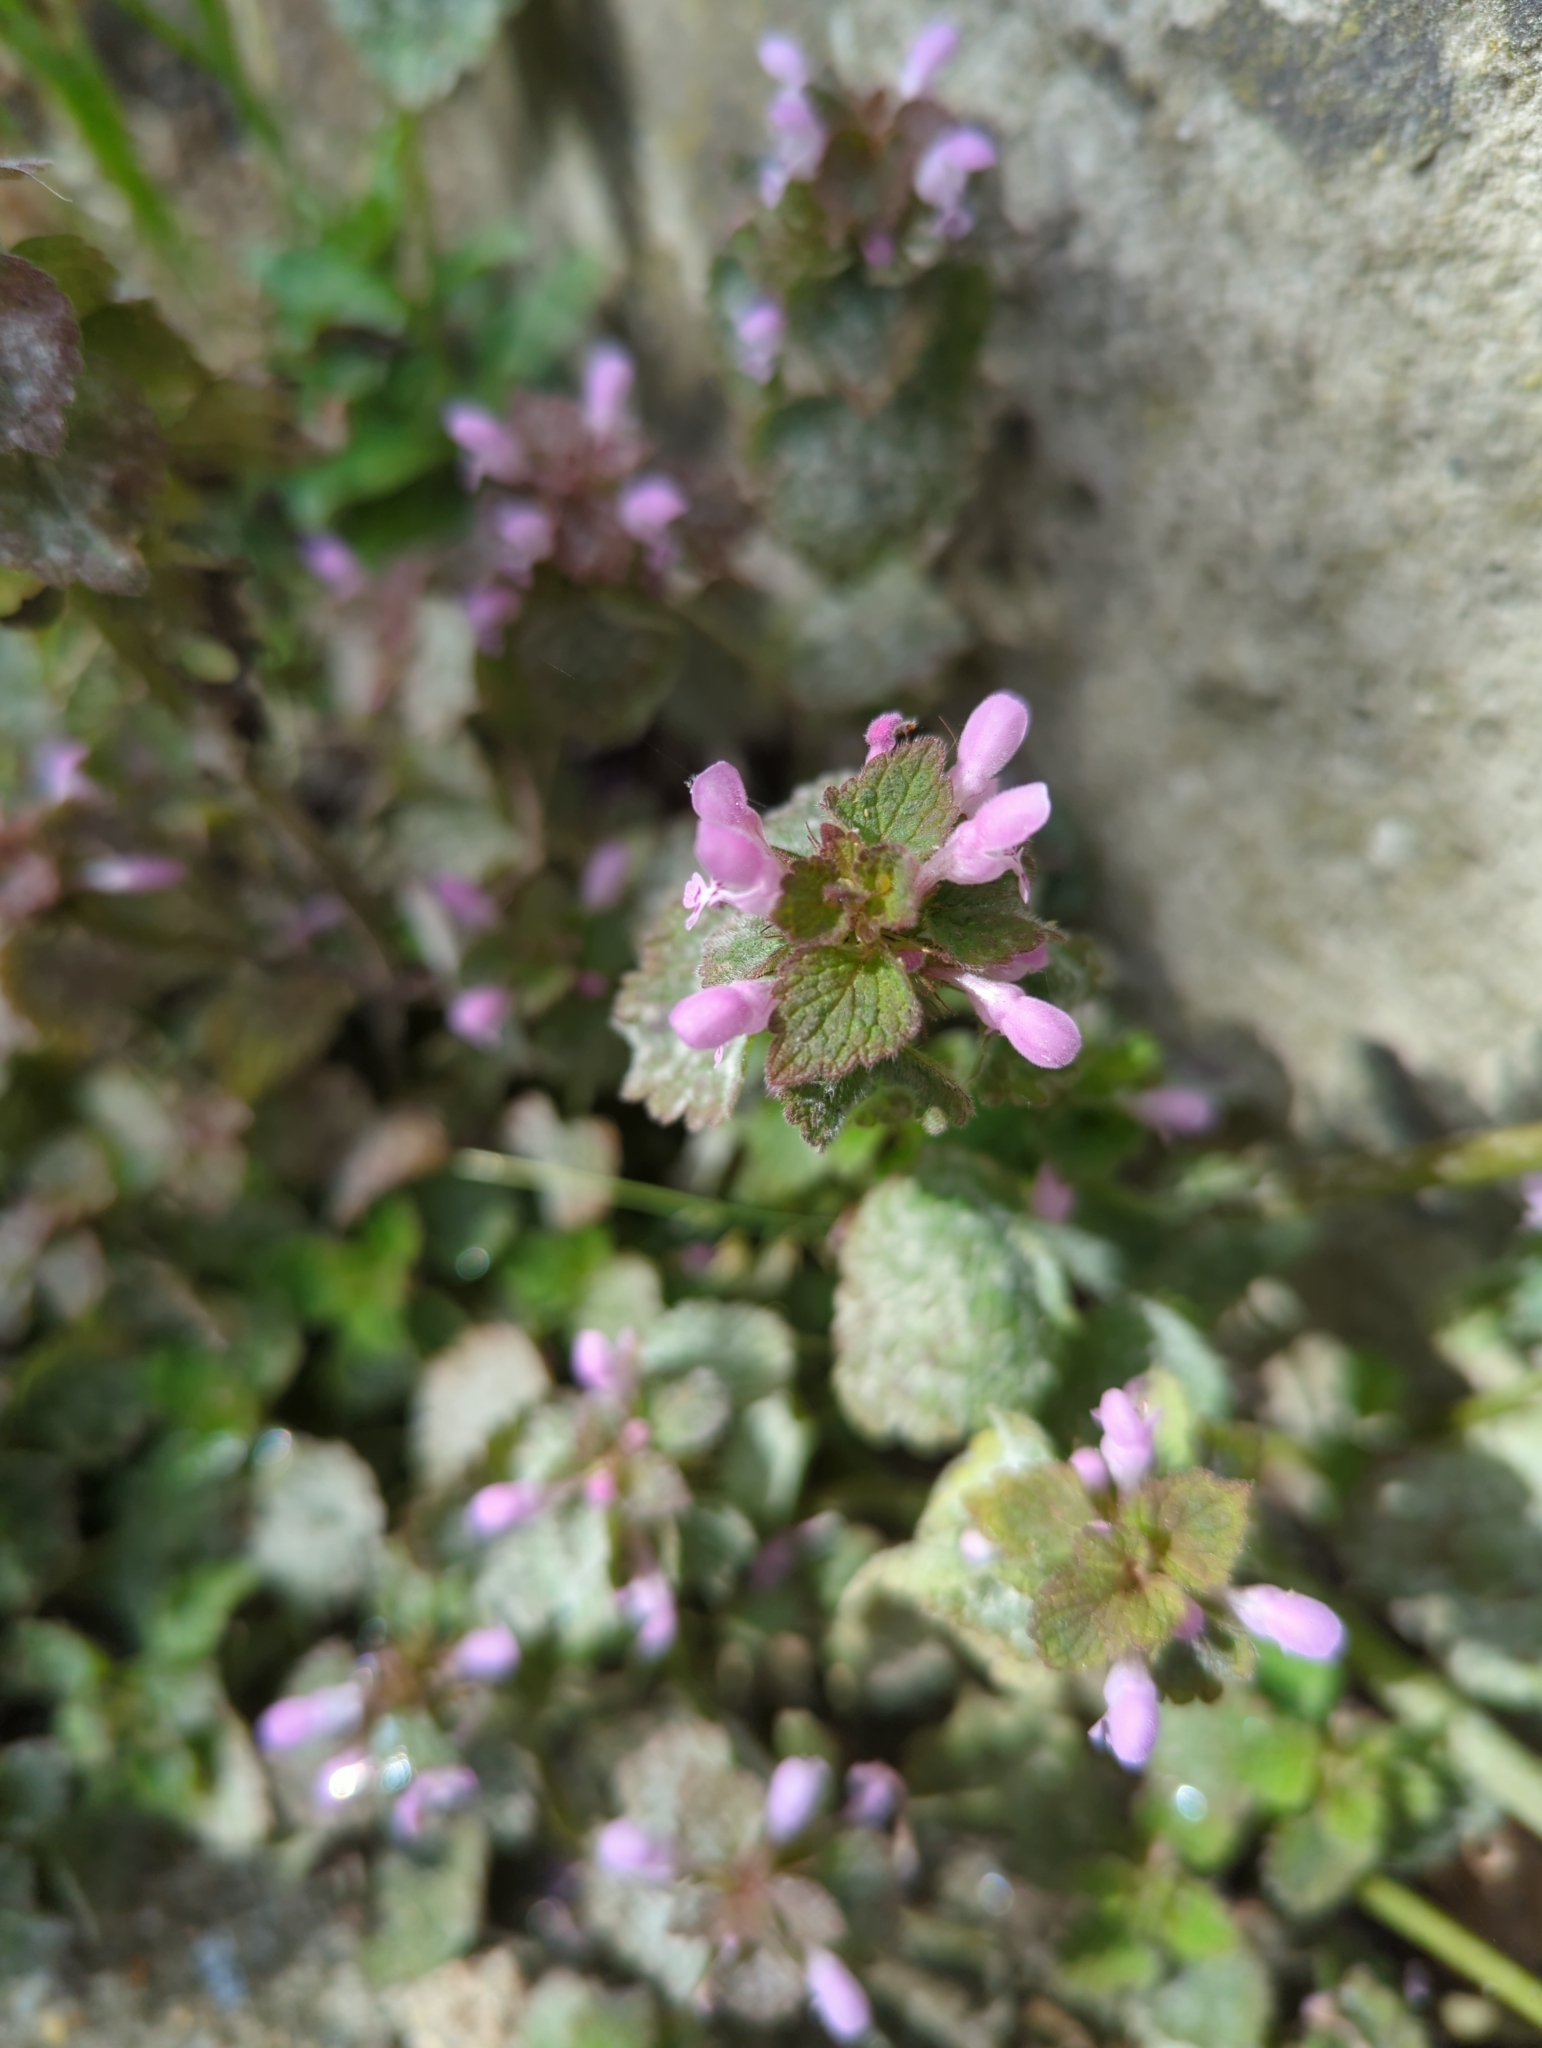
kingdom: Plantae
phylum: Tracheophyta
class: Magnoliopsida
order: Lamiales
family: Lamiaceae
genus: Lamium
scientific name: Lamium purpureum
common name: Red dead-nettle
